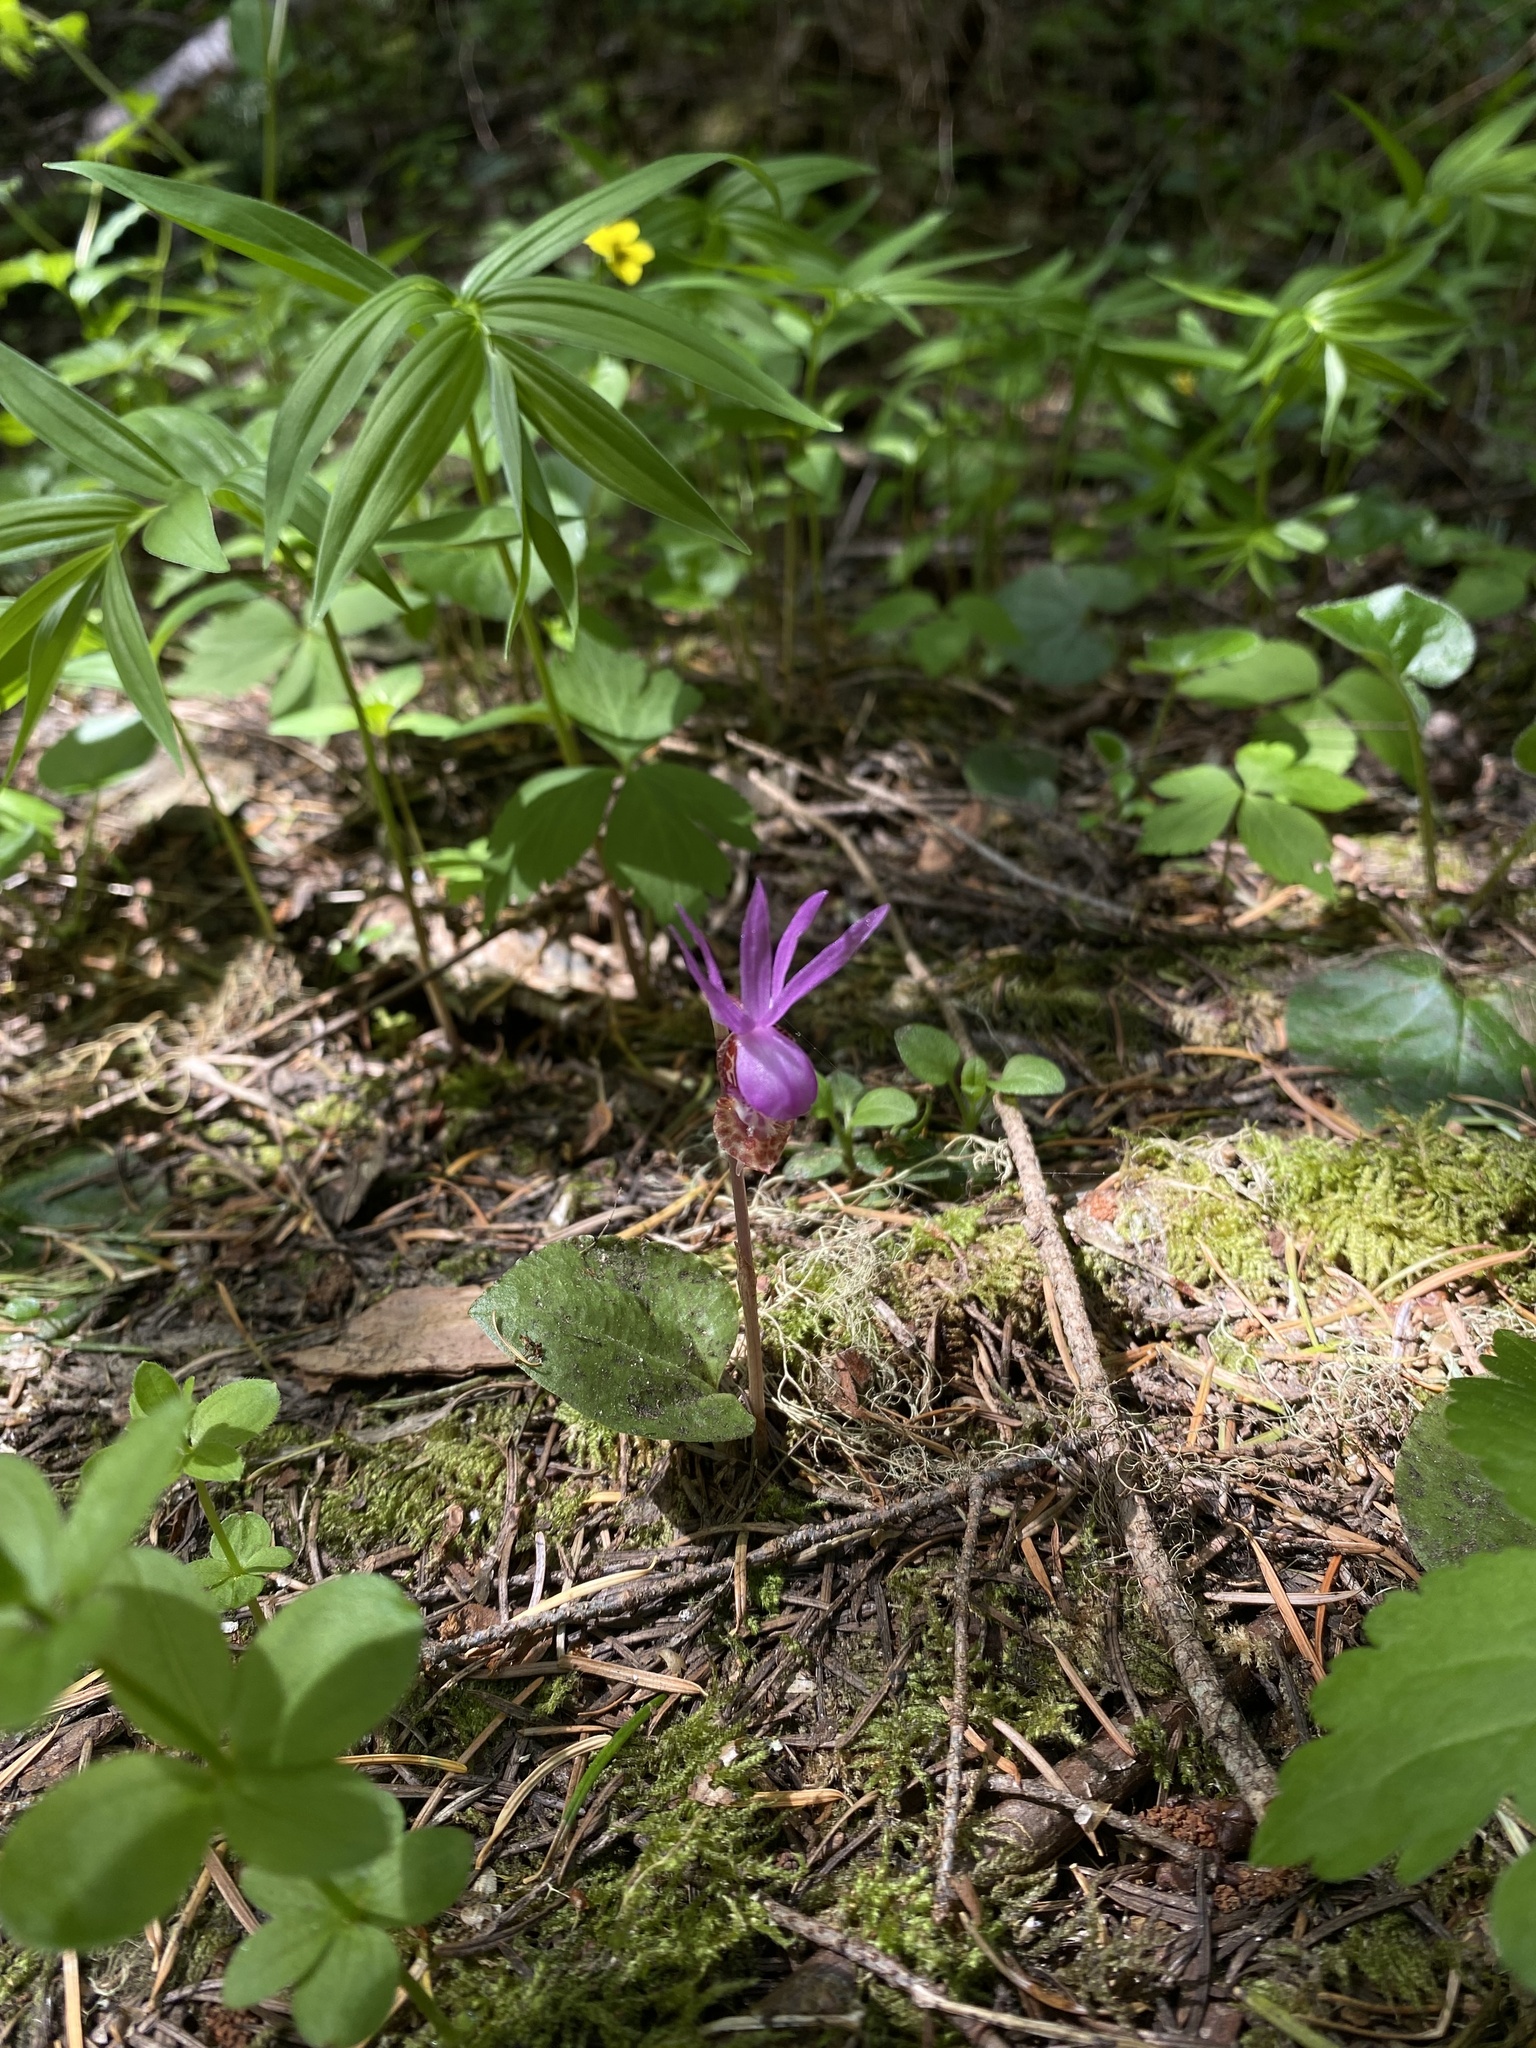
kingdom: Plantae
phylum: Tracheophyta
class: Liliopsida
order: Asparagales
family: Orchidaceae
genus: Calypso
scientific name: Calypso bulbosa
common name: Calypso
